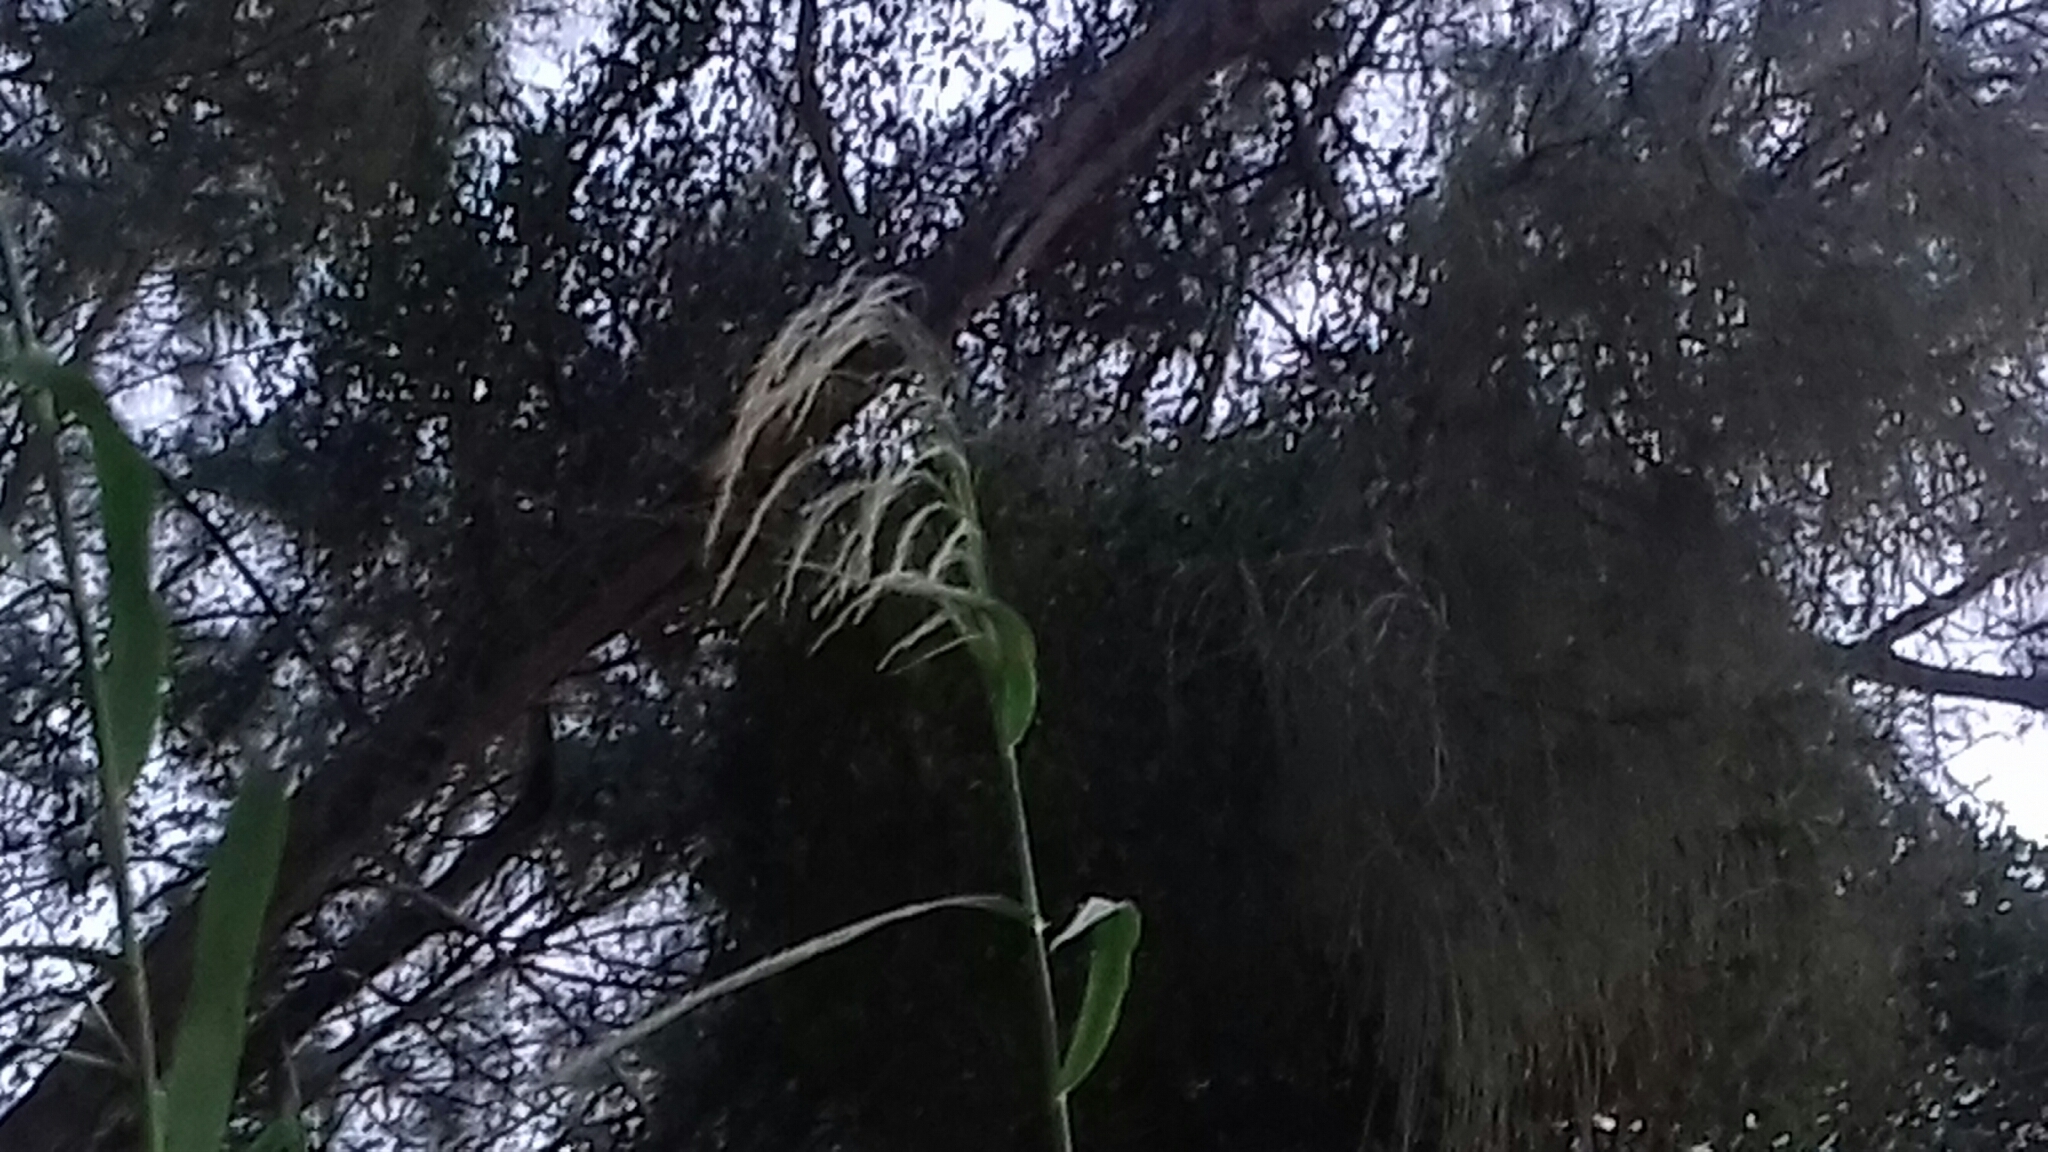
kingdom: Plantae
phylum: Tracheophyta
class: Liliopsida
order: Poales
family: Poaceae
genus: Phragmites
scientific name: Phragmites australis
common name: Common reed
